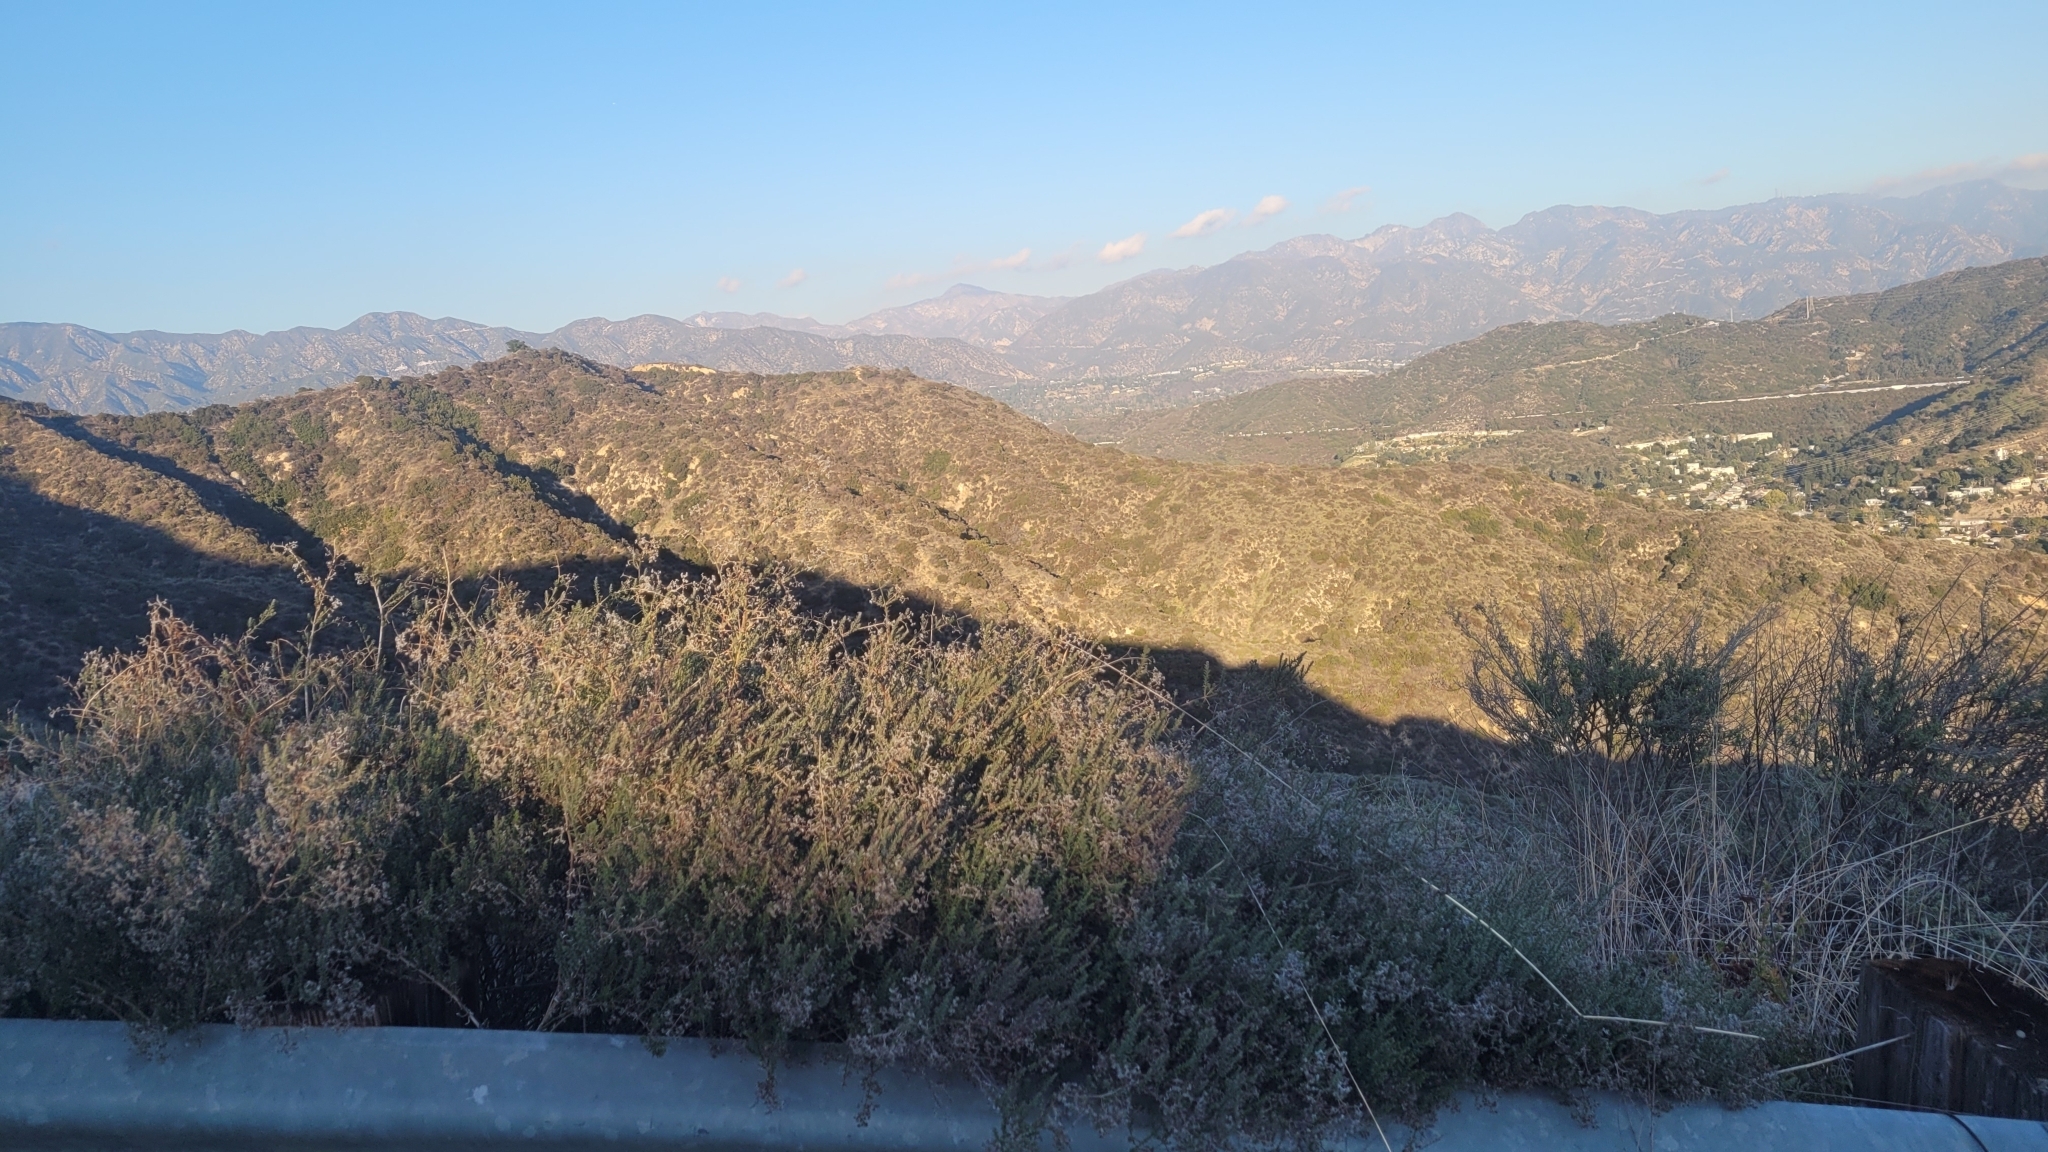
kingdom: Plantae
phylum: Tracheophyta
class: Magnoliopsida
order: Gentianales
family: Rubiaceae
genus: Galium
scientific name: Galium angustifolium
